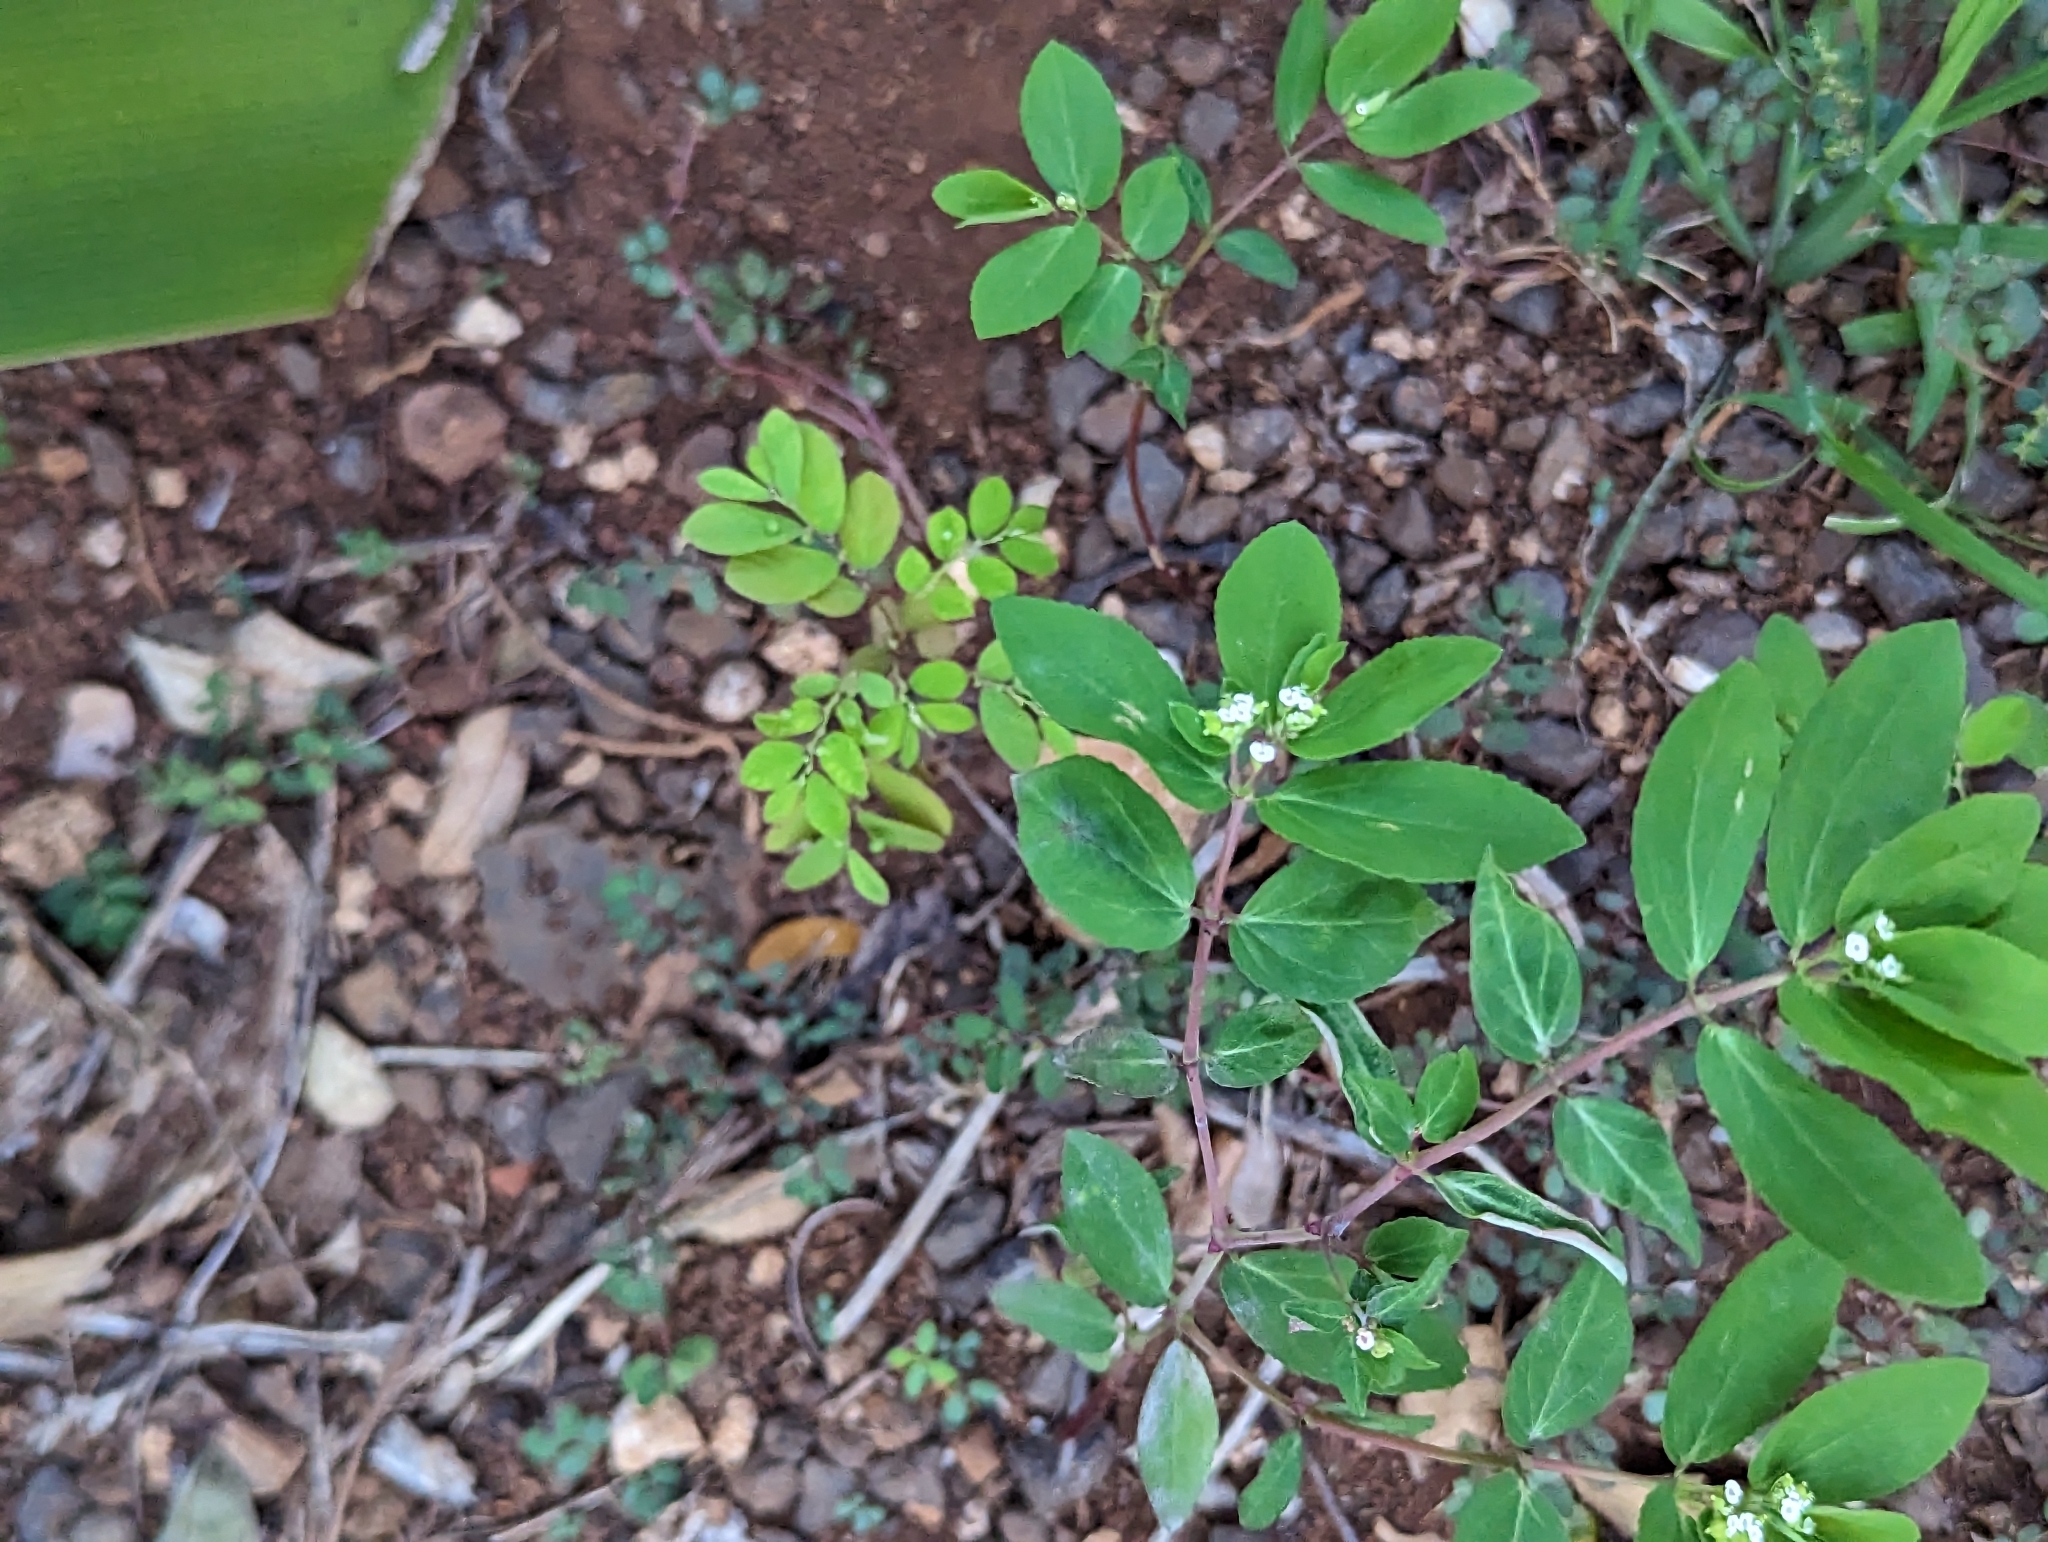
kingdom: Plantae
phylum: Tracheophyta
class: Magnoliopsida
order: Malpighiales
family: Euphorbiaceae
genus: Euphorbia
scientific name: Euphorbia hypericifolia
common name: Graceful sandmat
